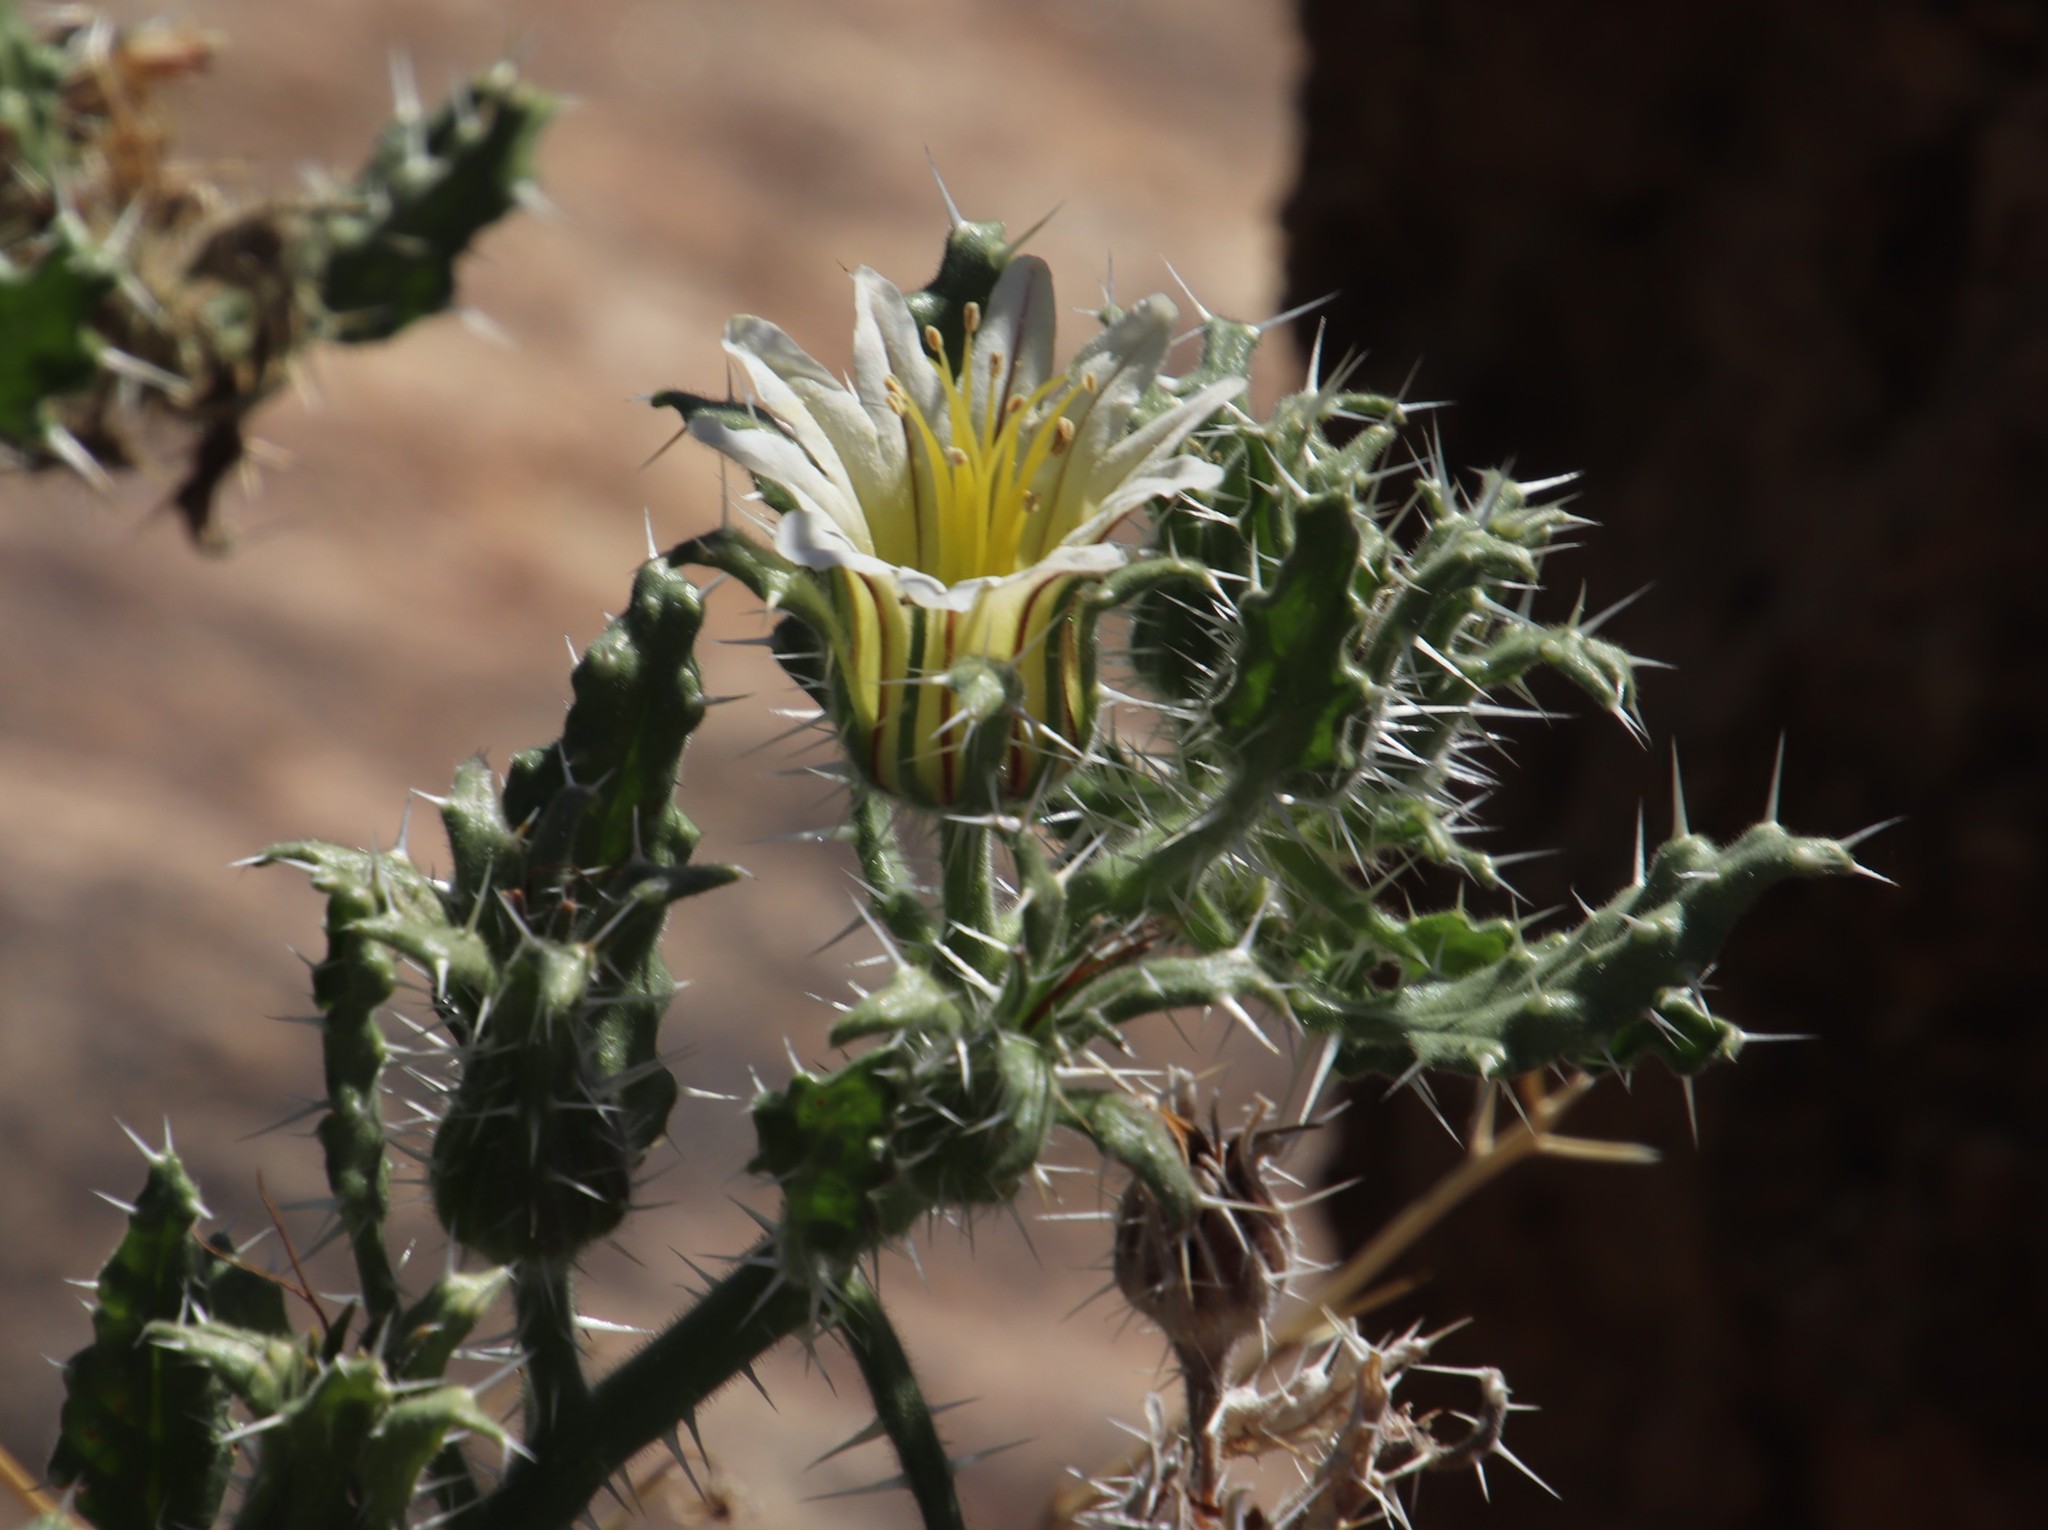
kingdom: Plantae
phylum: Tracheophyta
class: Magnoliopsida
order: Boraginales
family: Boraginaceae
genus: Codon
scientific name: Codon royenii
